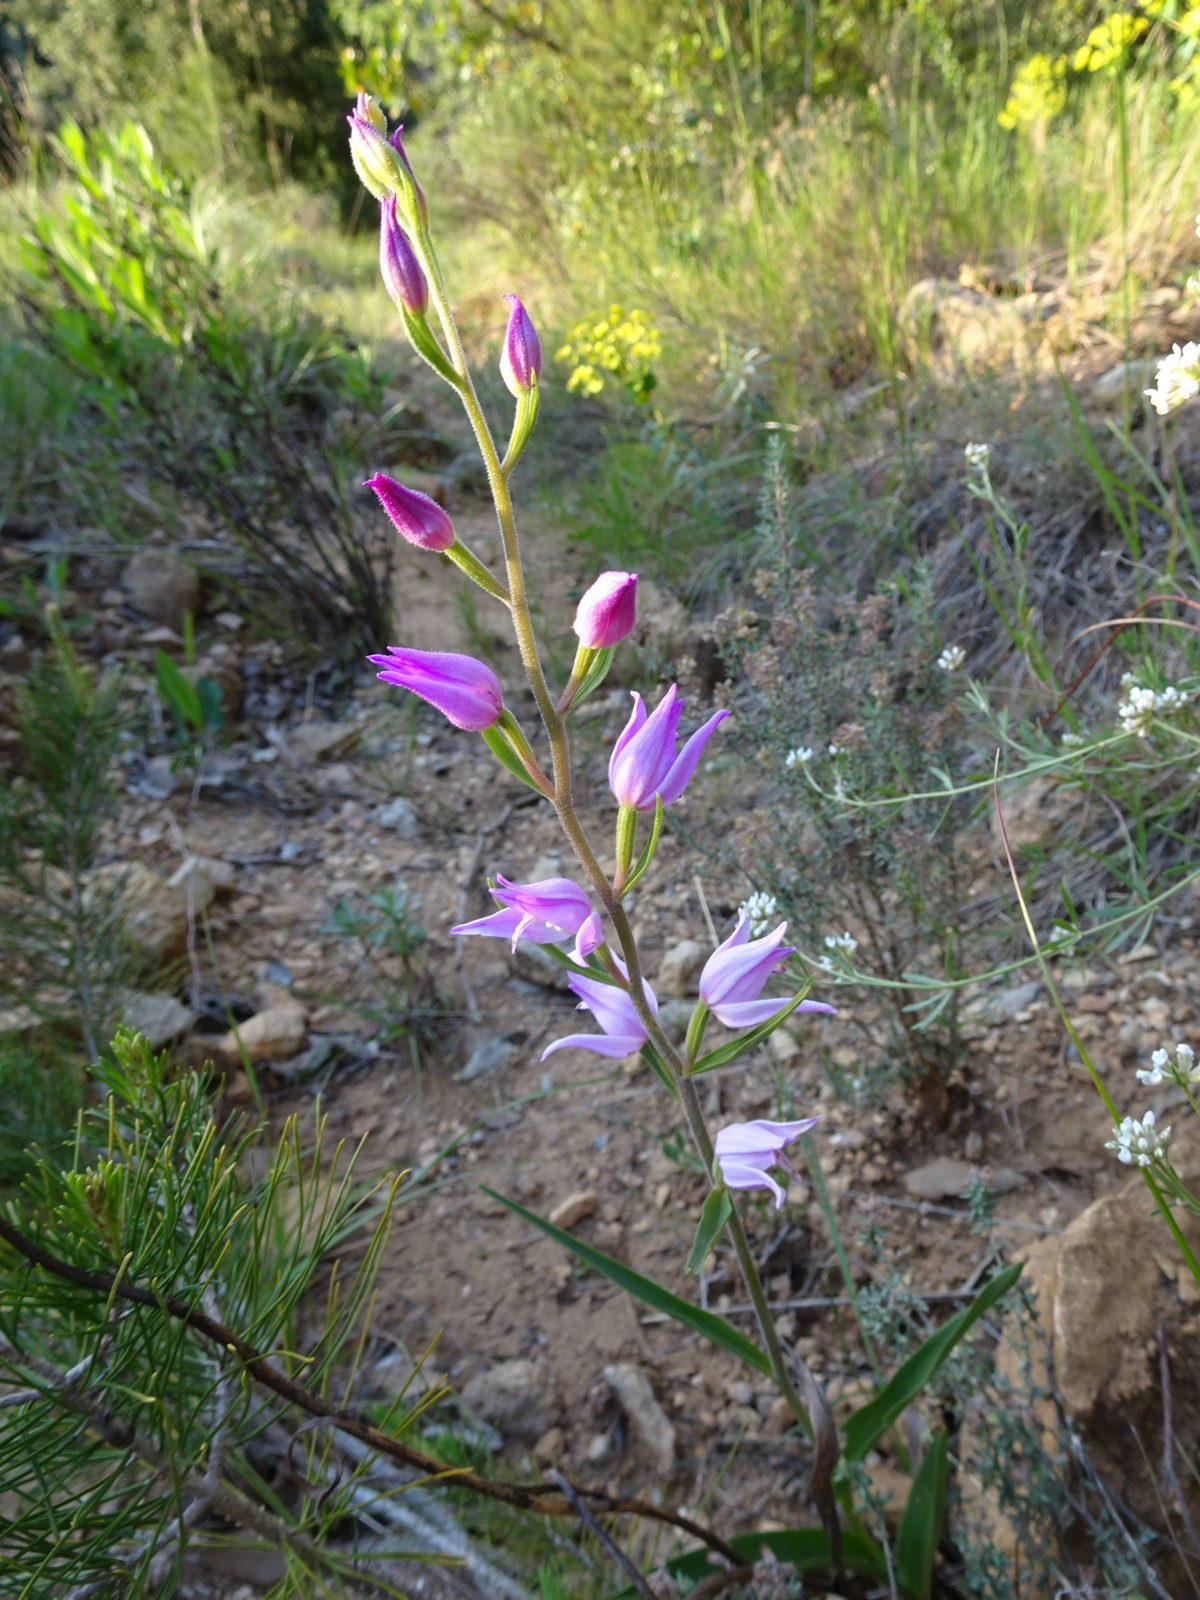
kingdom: Plantae
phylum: Tracheophyta
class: Liliopsida
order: Asparagales
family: Orchidaceae
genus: Cephalanthera
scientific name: Cephalanthera rubra
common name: Red helleborine
